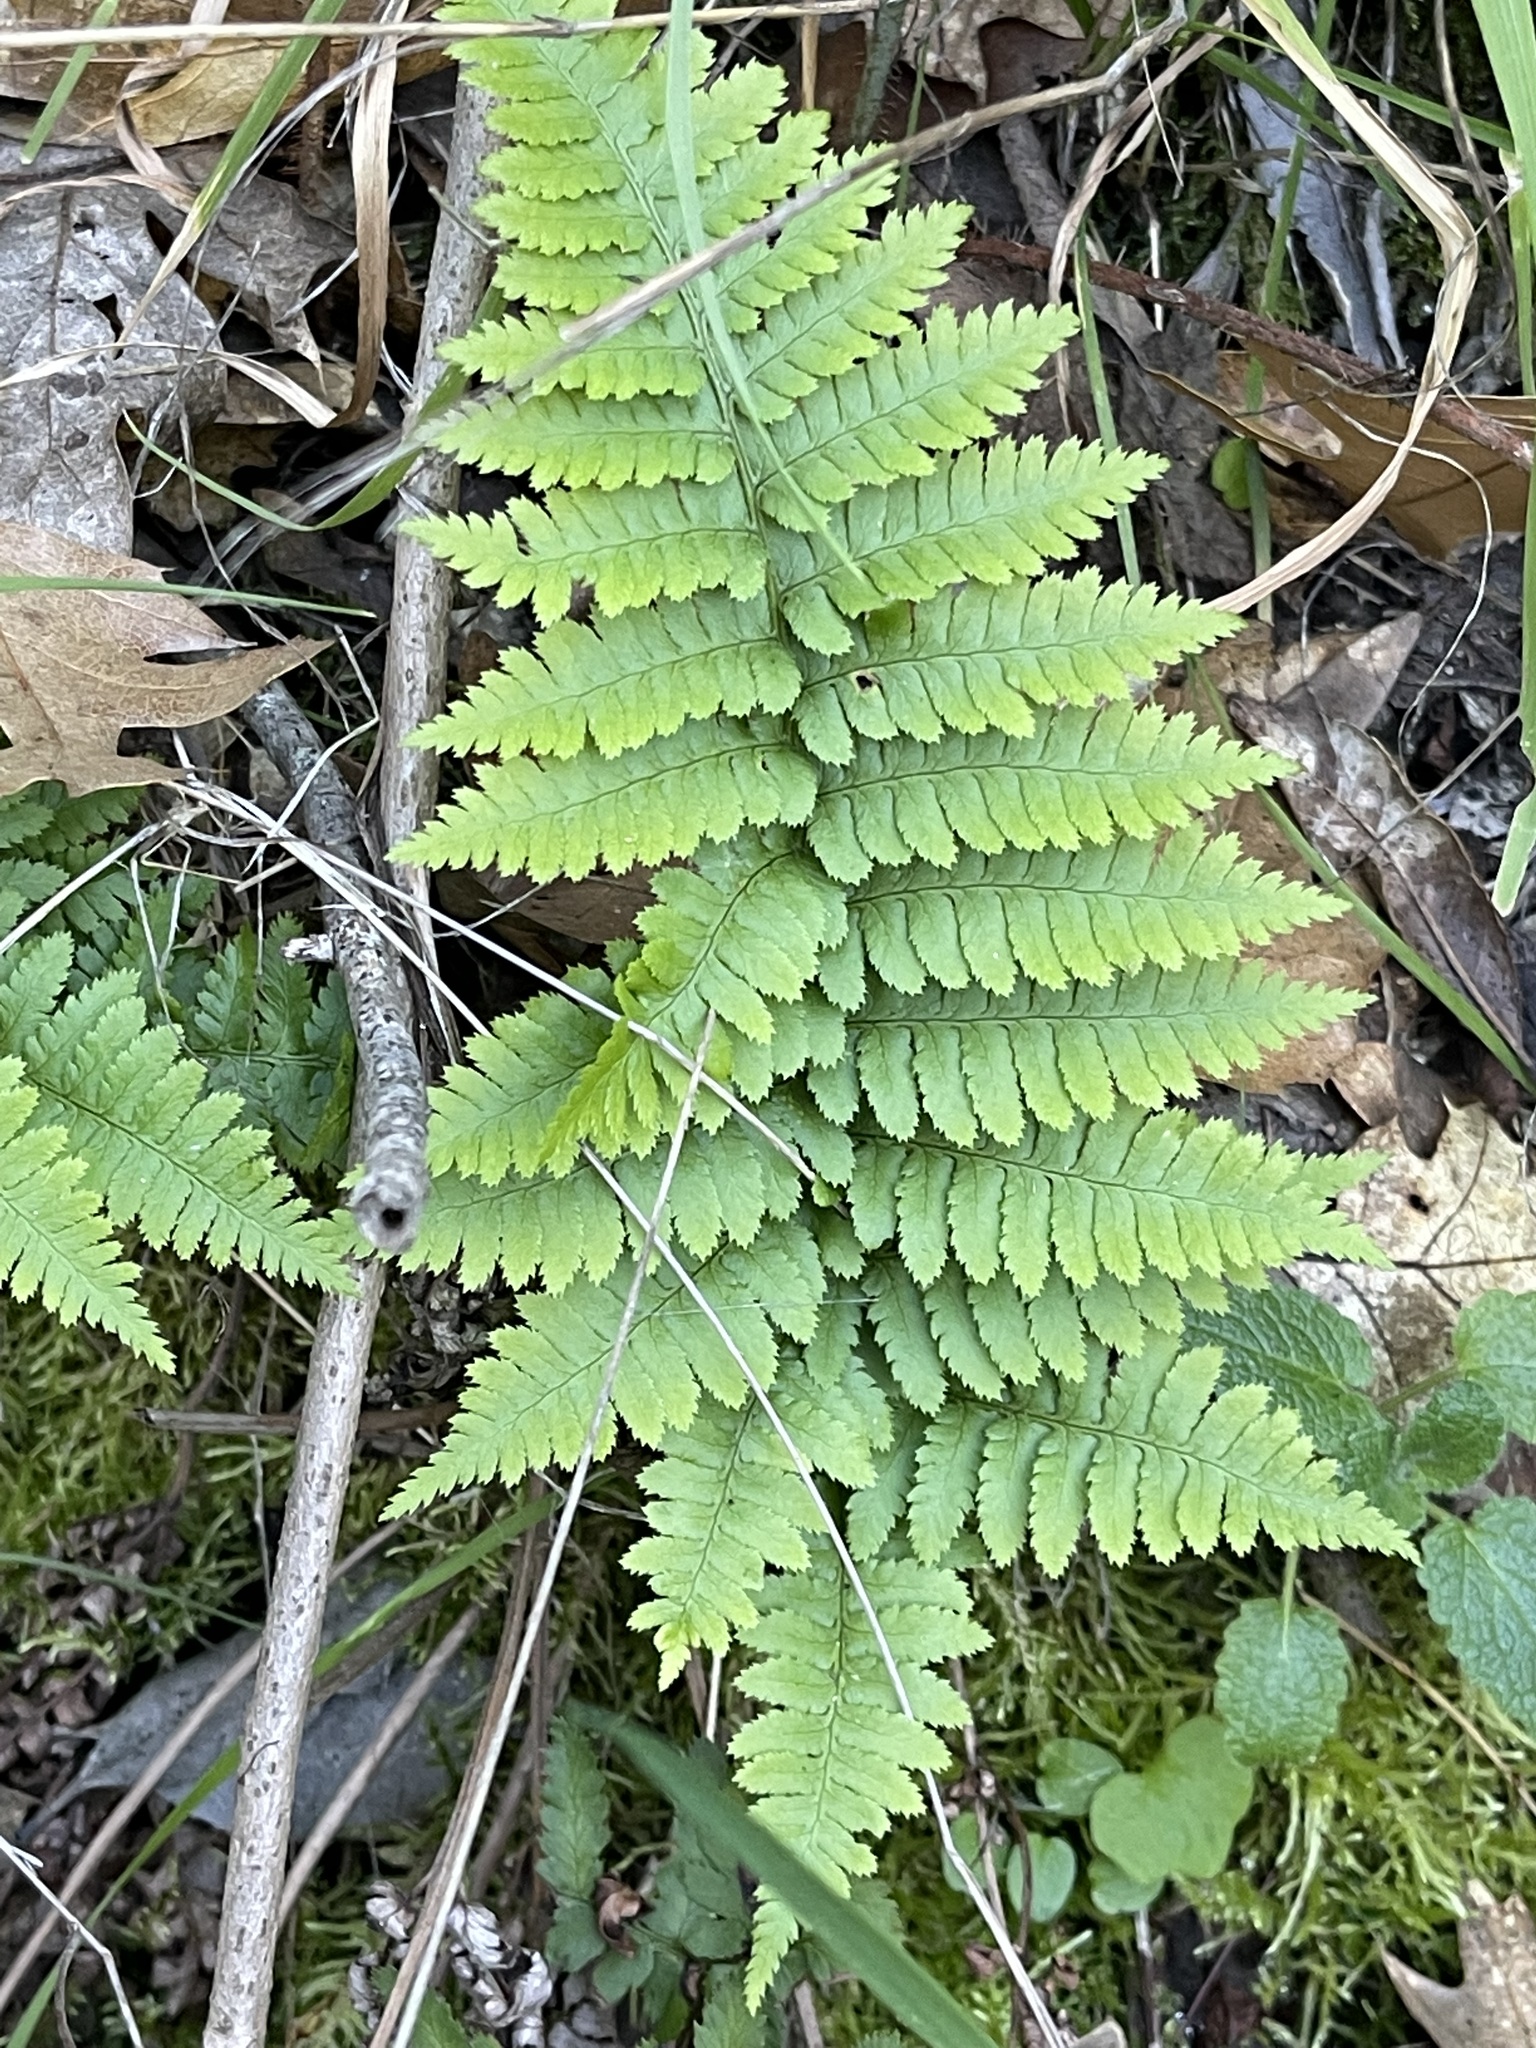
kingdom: Plantae
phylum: Tracheophyta
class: Polypodiopsida
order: Polypodiales
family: Dryopteridaceae
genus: Dryopteris
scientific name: Dryopteris arguta
